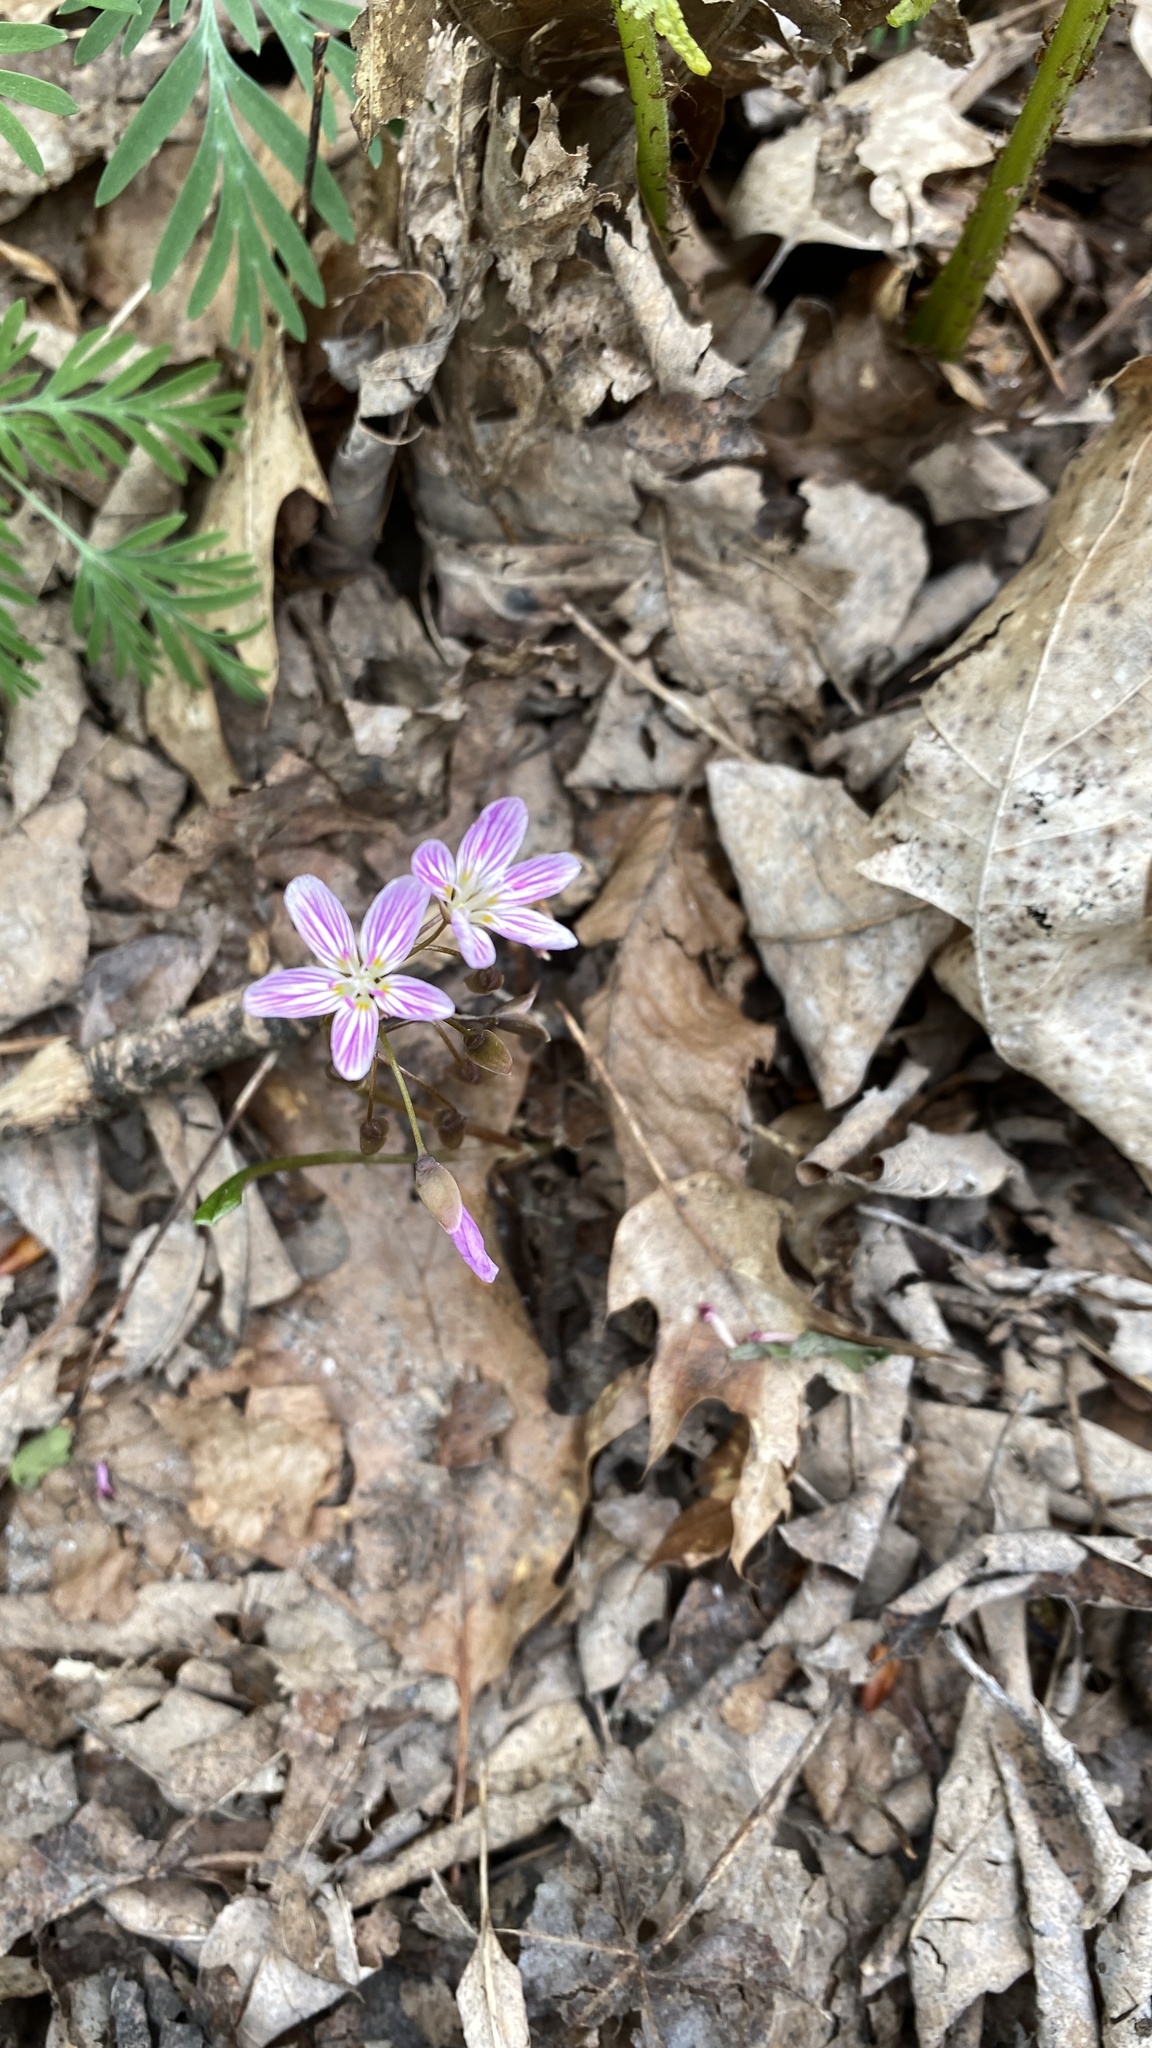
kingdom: Plantae
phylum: Tracheophyta
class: Magnoliopsida
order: Caryophyllales
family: Montiaceae
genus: Claytonia
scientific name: Claytonia caroliniana
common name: Carolina spring beauty
